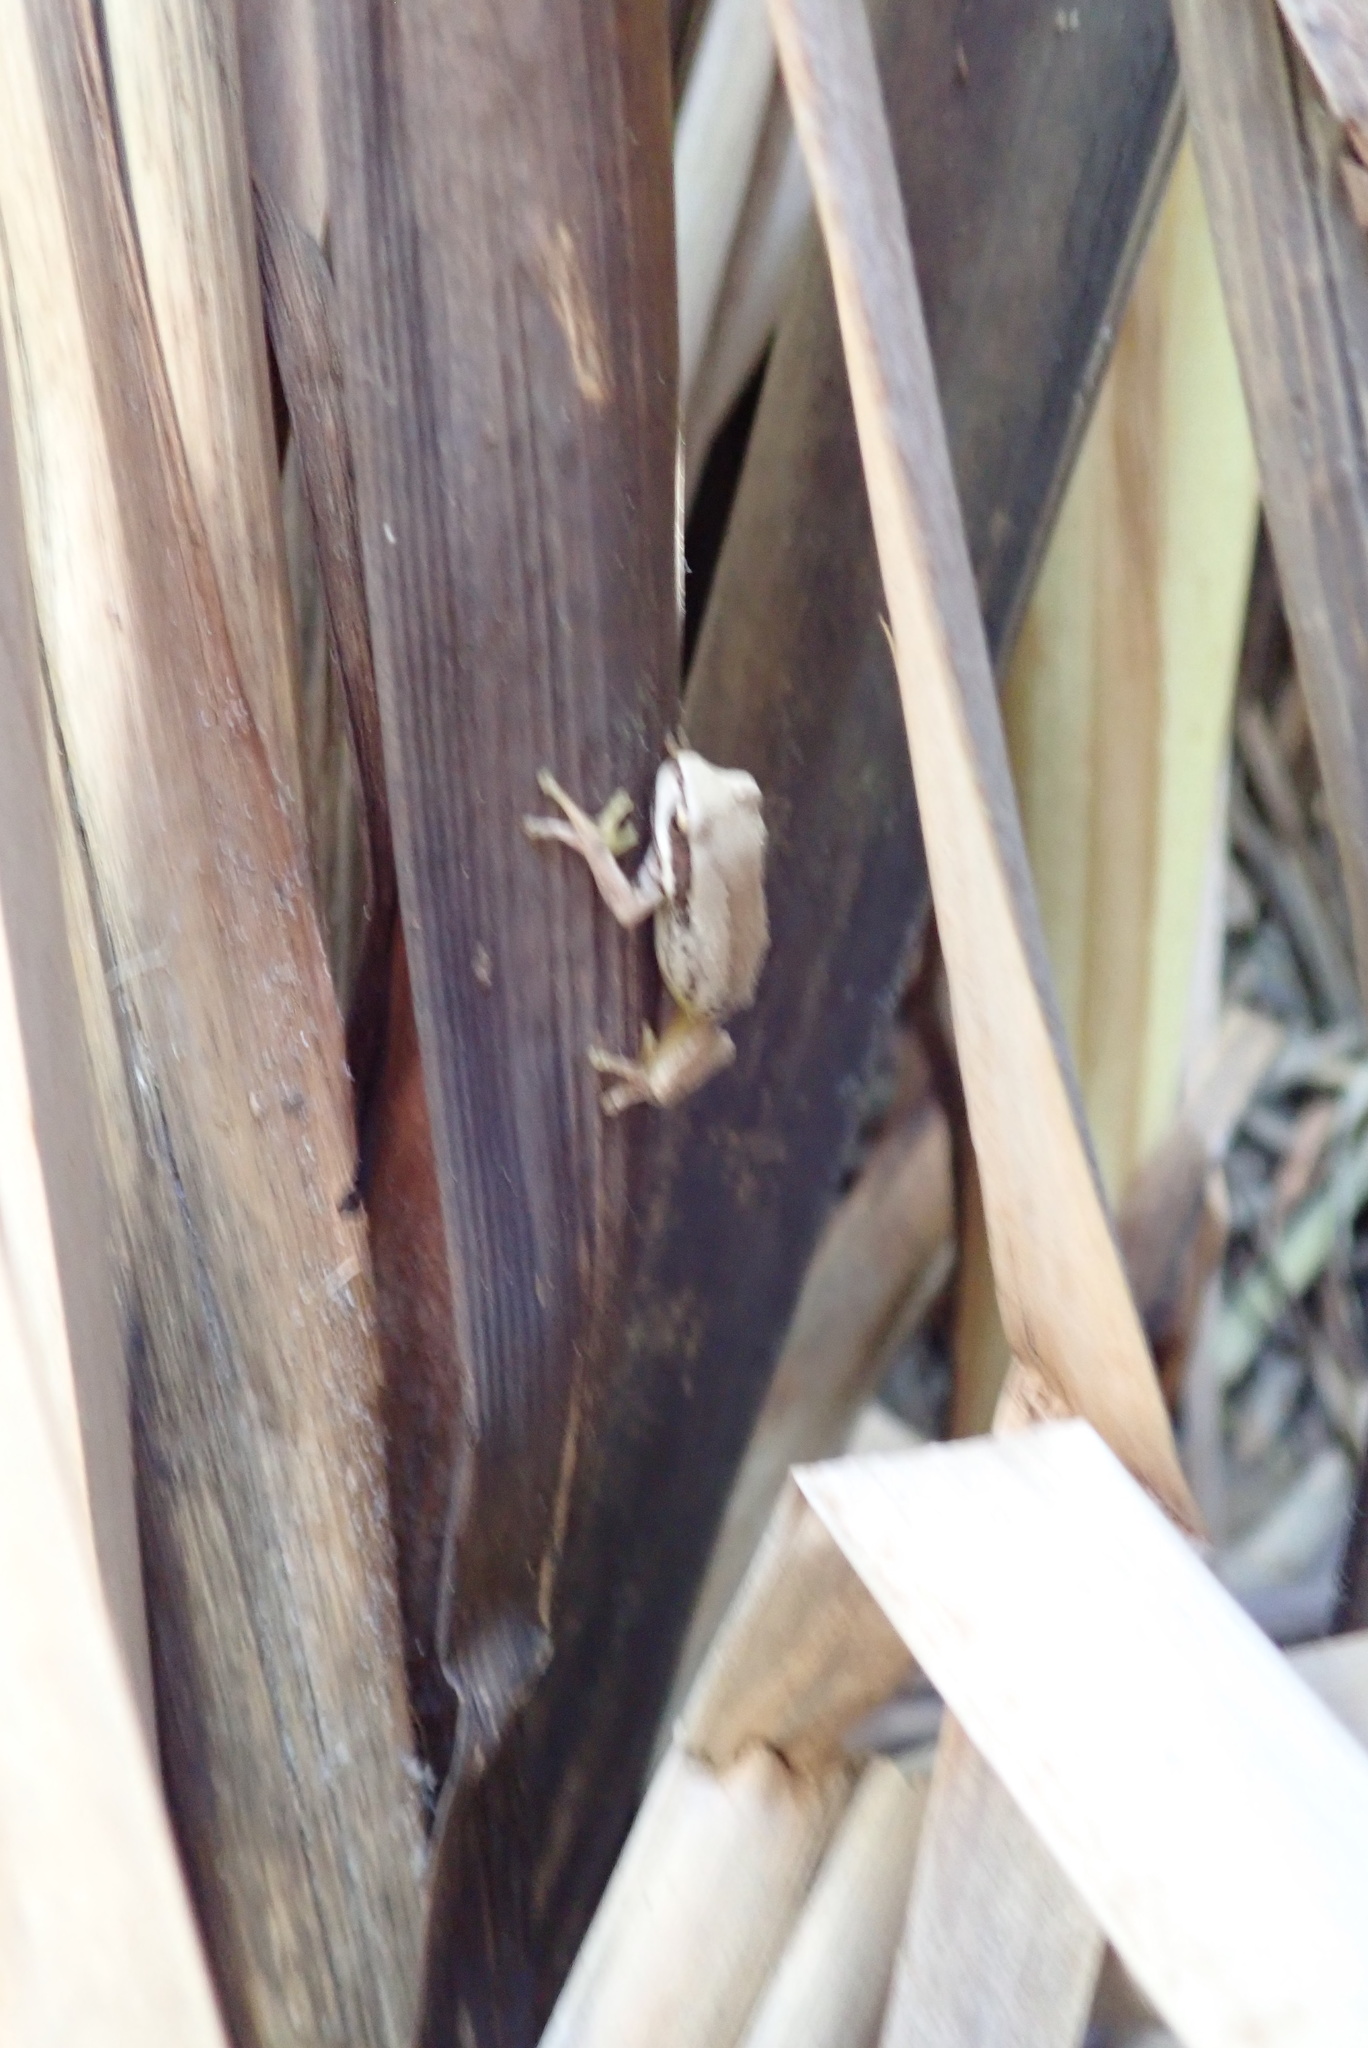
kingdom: Animalia
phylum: Chordata
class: Amphibia
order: Anura
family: Pelodryadidae
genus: Litoria
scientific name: Litoria ewingii
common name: Southern brown tree frog
